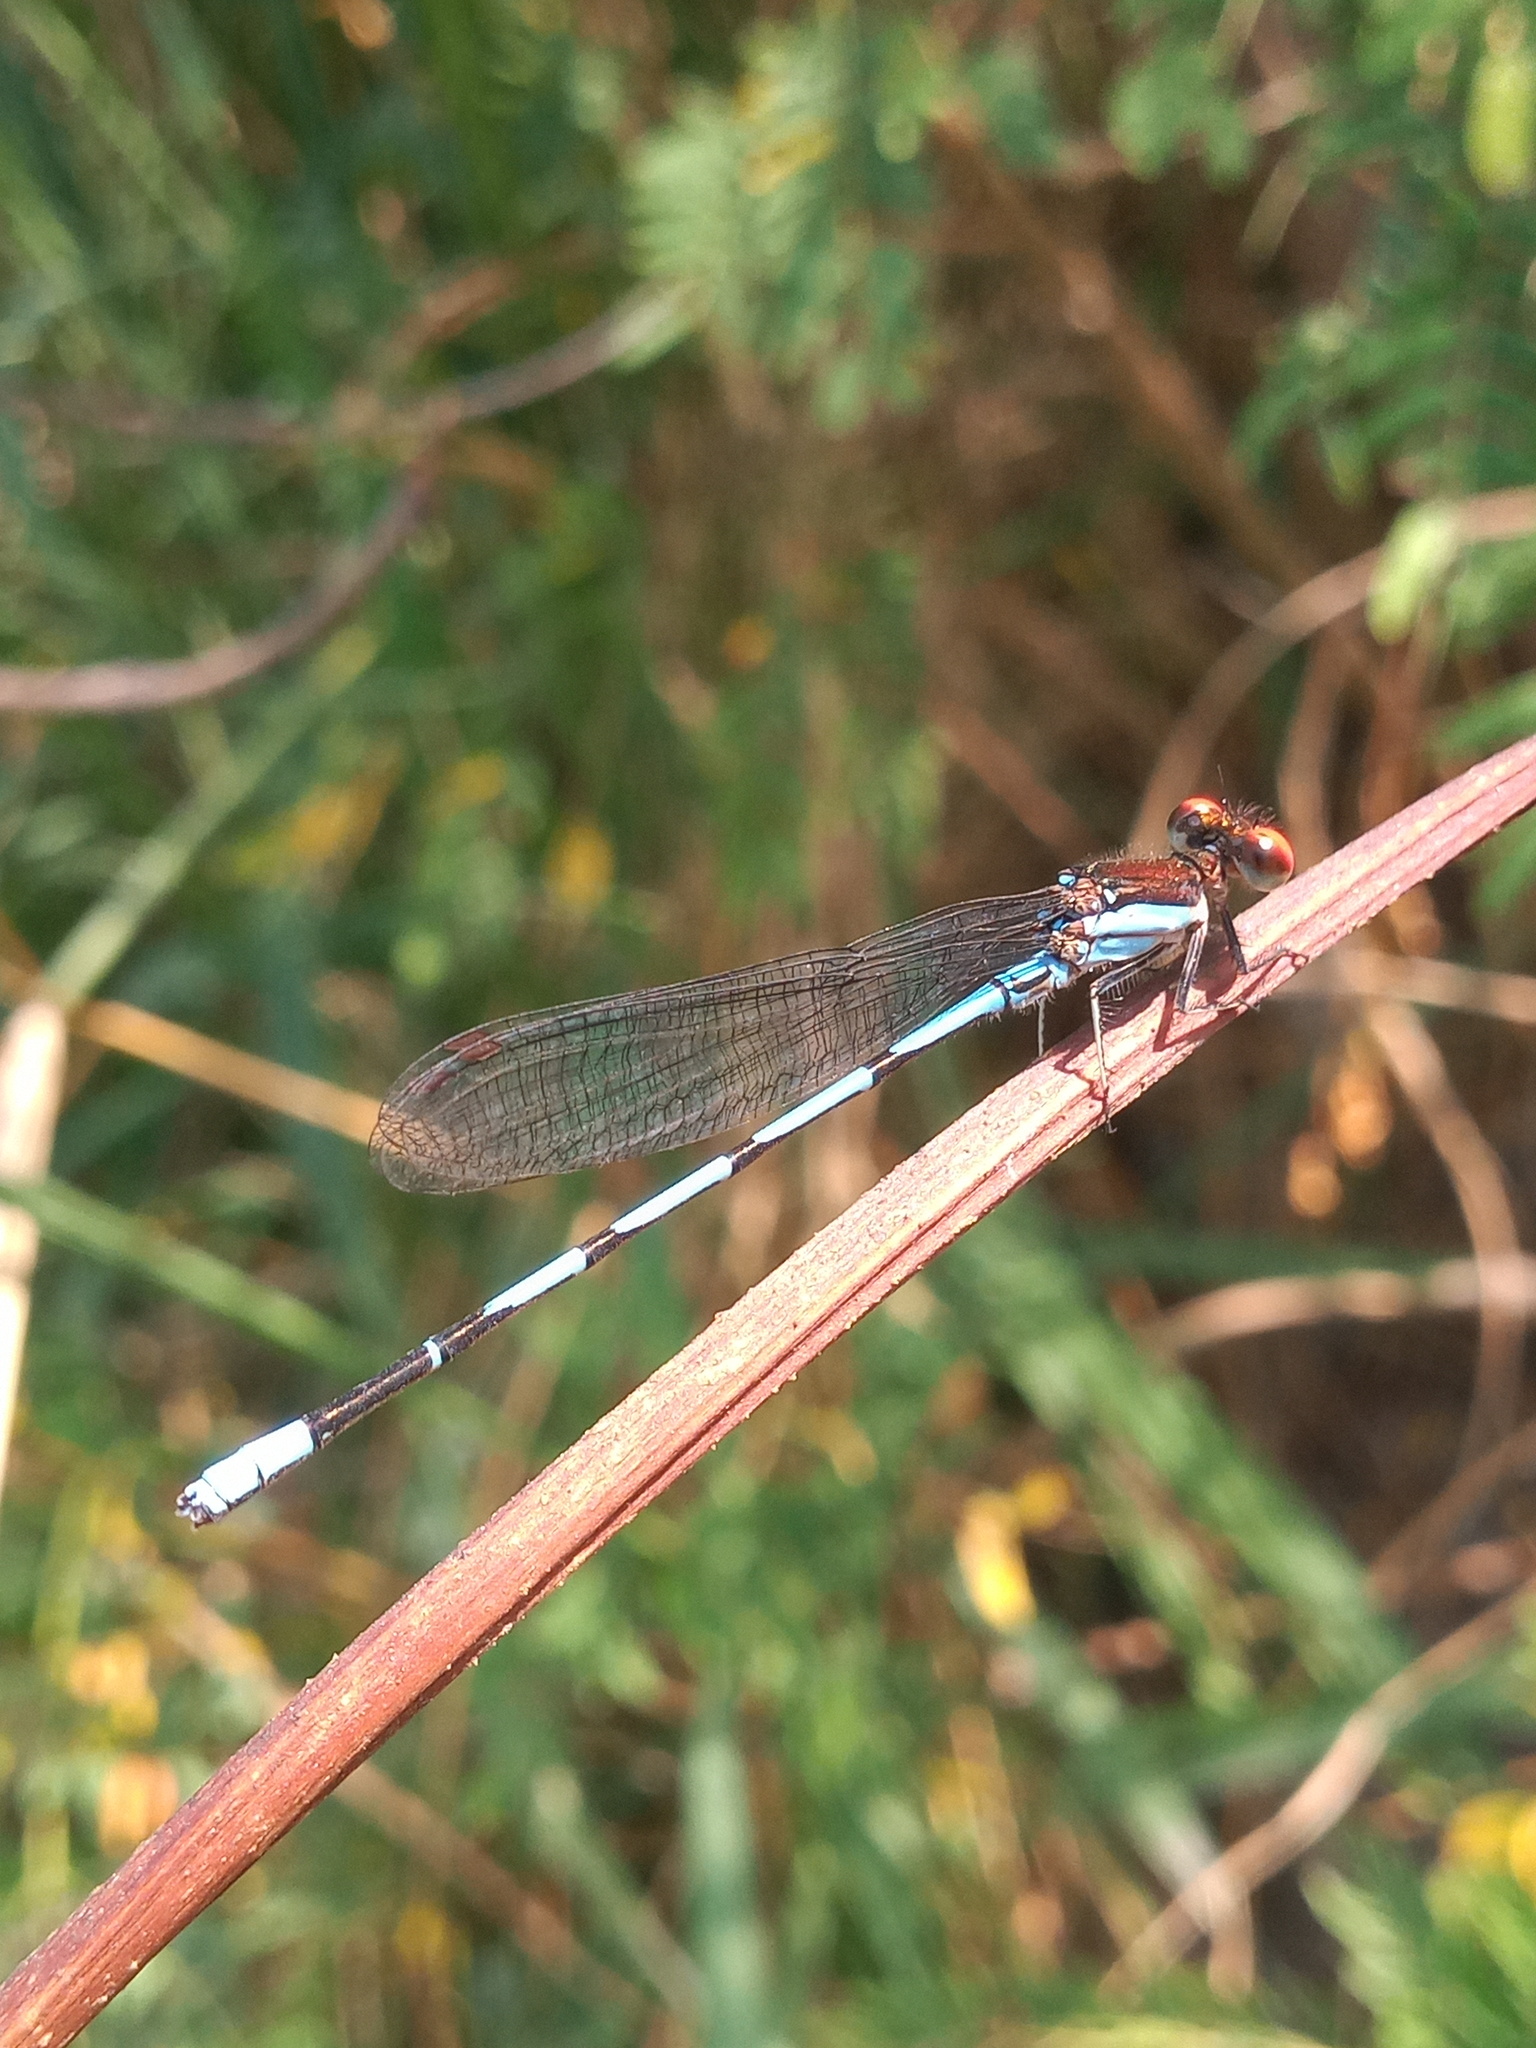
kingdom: Animalia
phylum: Arthropoda
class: Insecta
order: Odonata
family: Coenagrionidae
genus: Argia
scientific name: Argia oenea
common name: Fiery-eyed dancer
